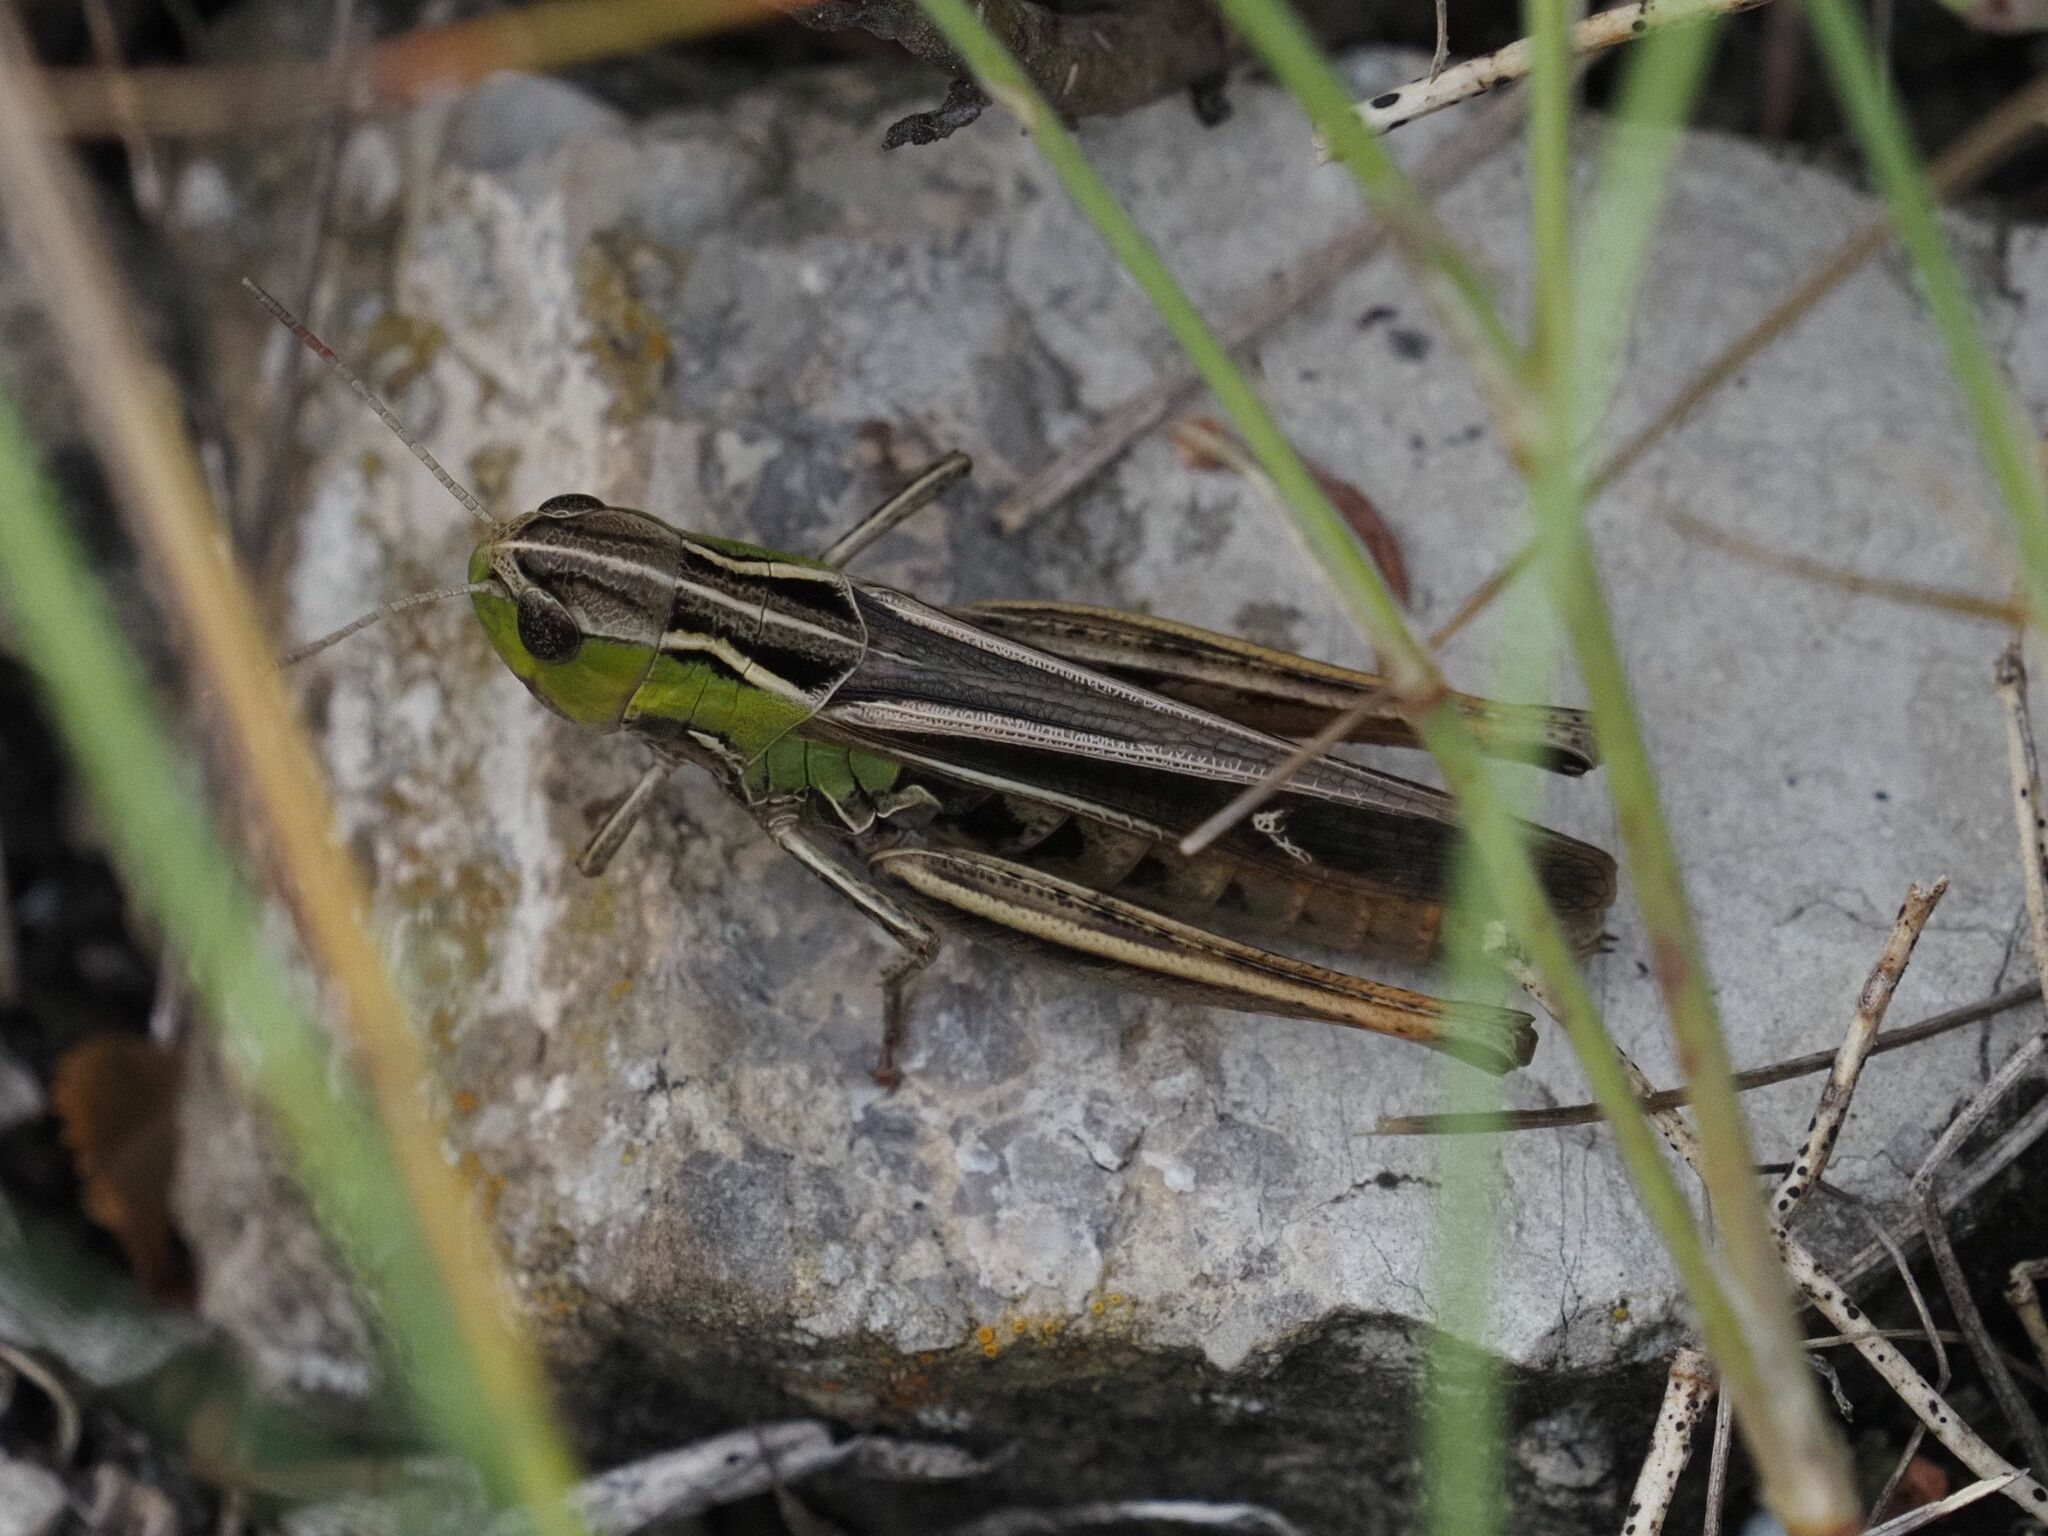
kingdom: Animalia
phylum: Arthropoda
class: Insecta
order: Orthoptera
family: Acrididae
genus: Stenobothrus
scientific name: Stenobothrus lineatus
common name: Stripe-winged grasshopper
